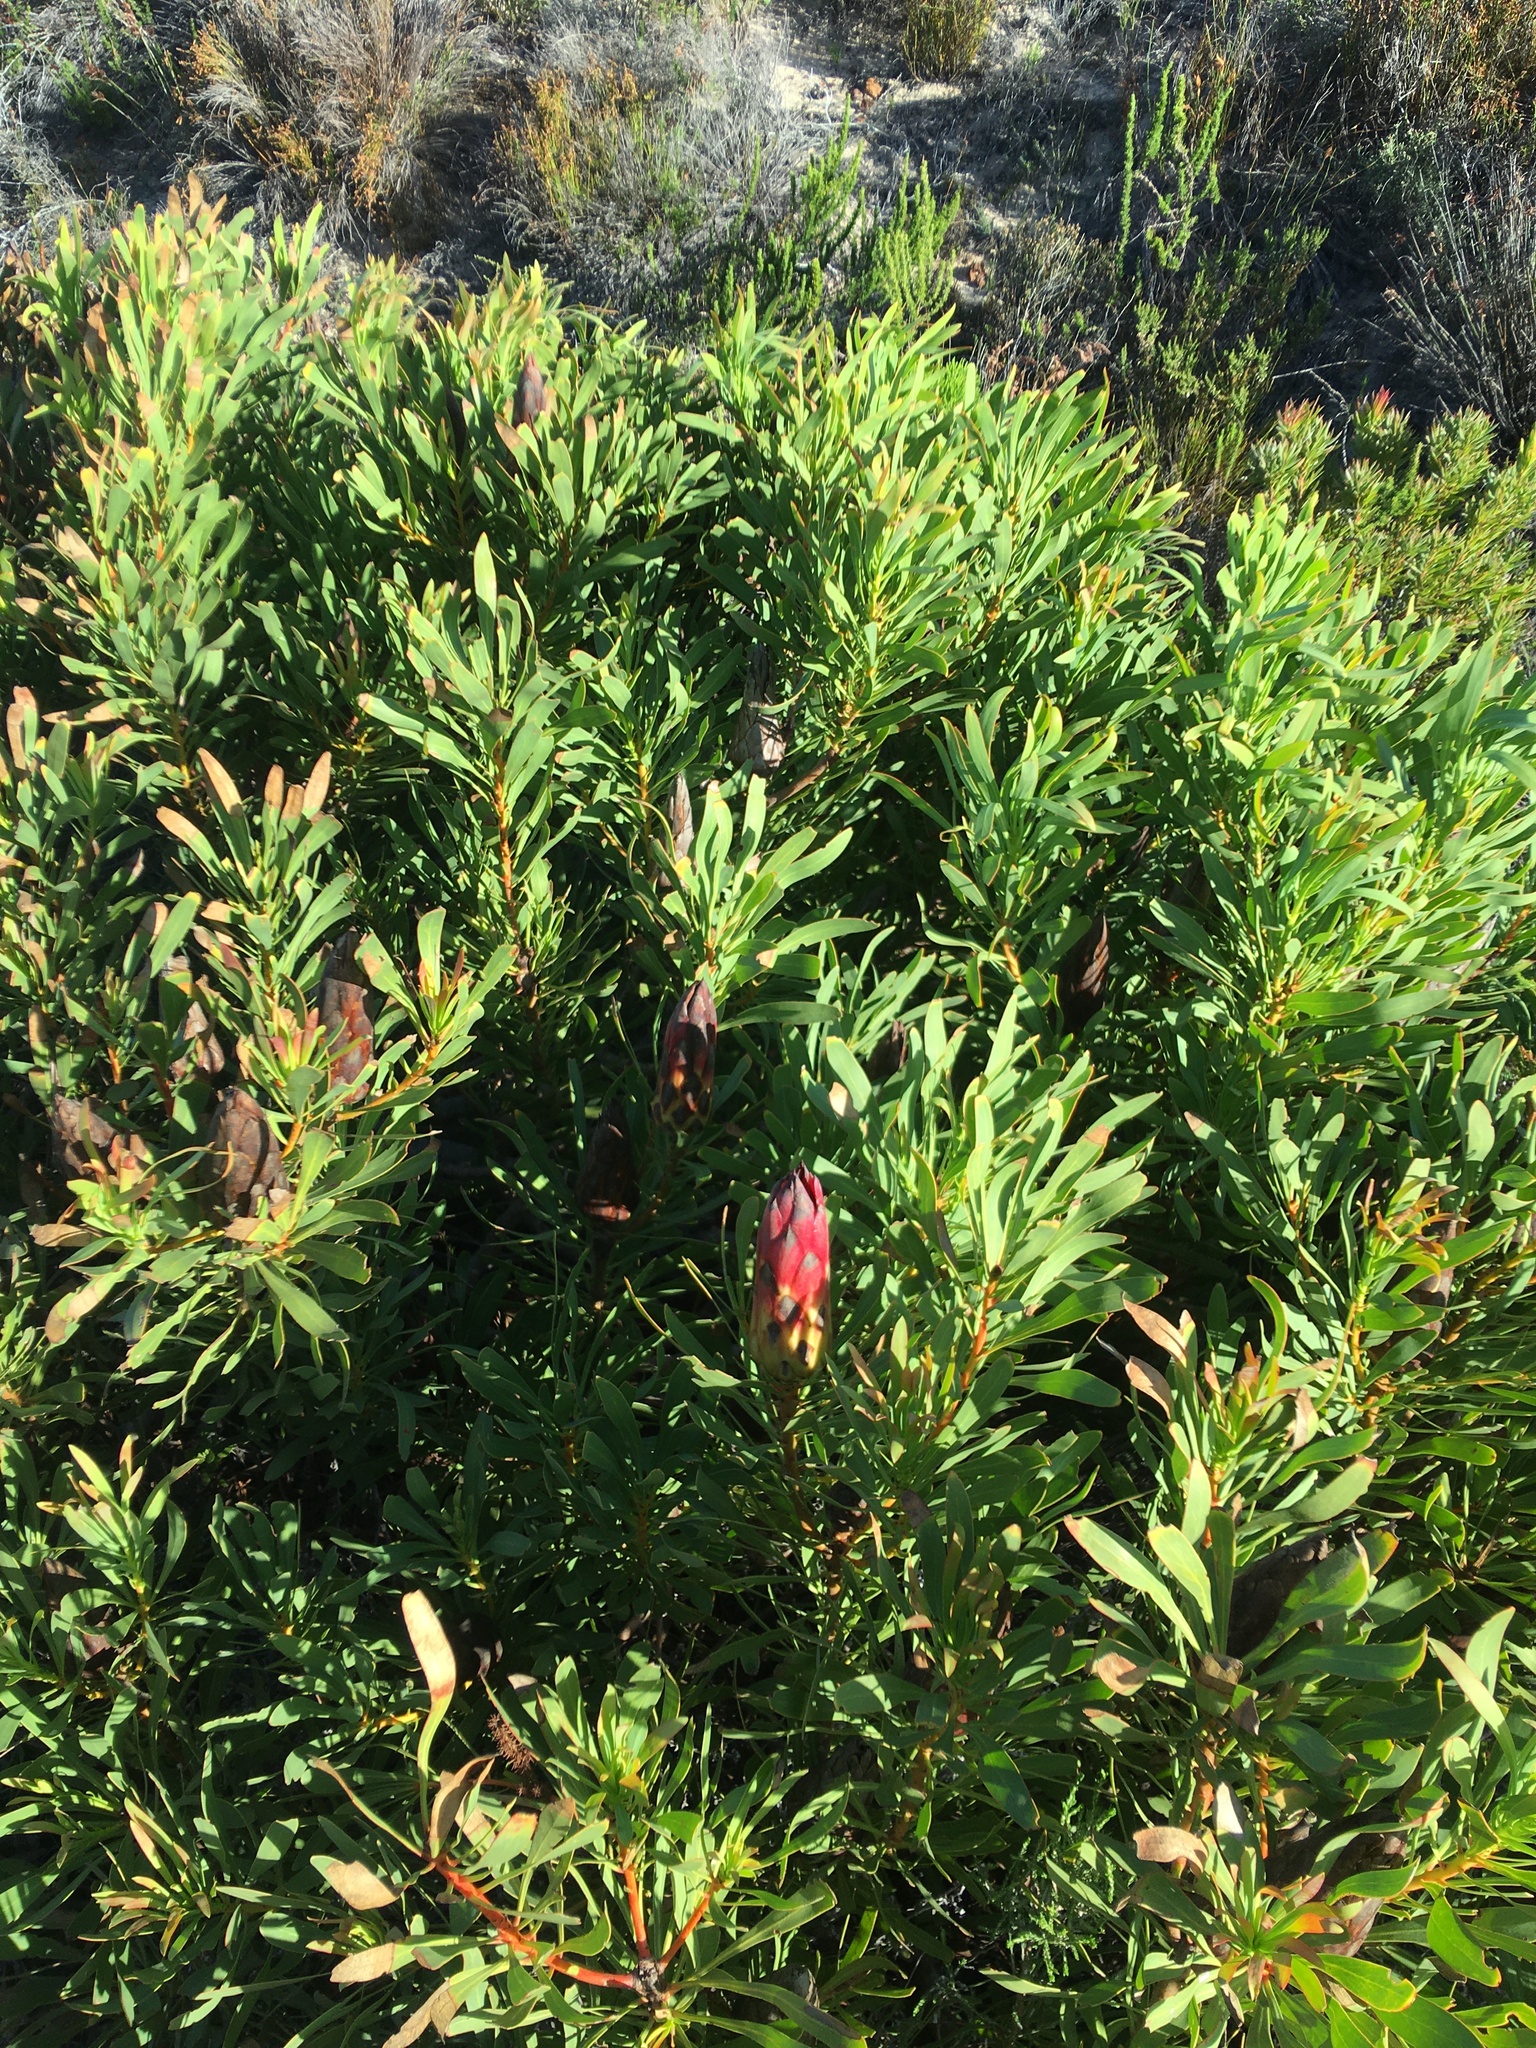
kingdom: Plantae
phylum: Tracheophyta
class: Magnoliopsida
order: Proteales
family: Proteaceae
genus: Protea
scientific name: Protea repens
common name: Sugarbush
